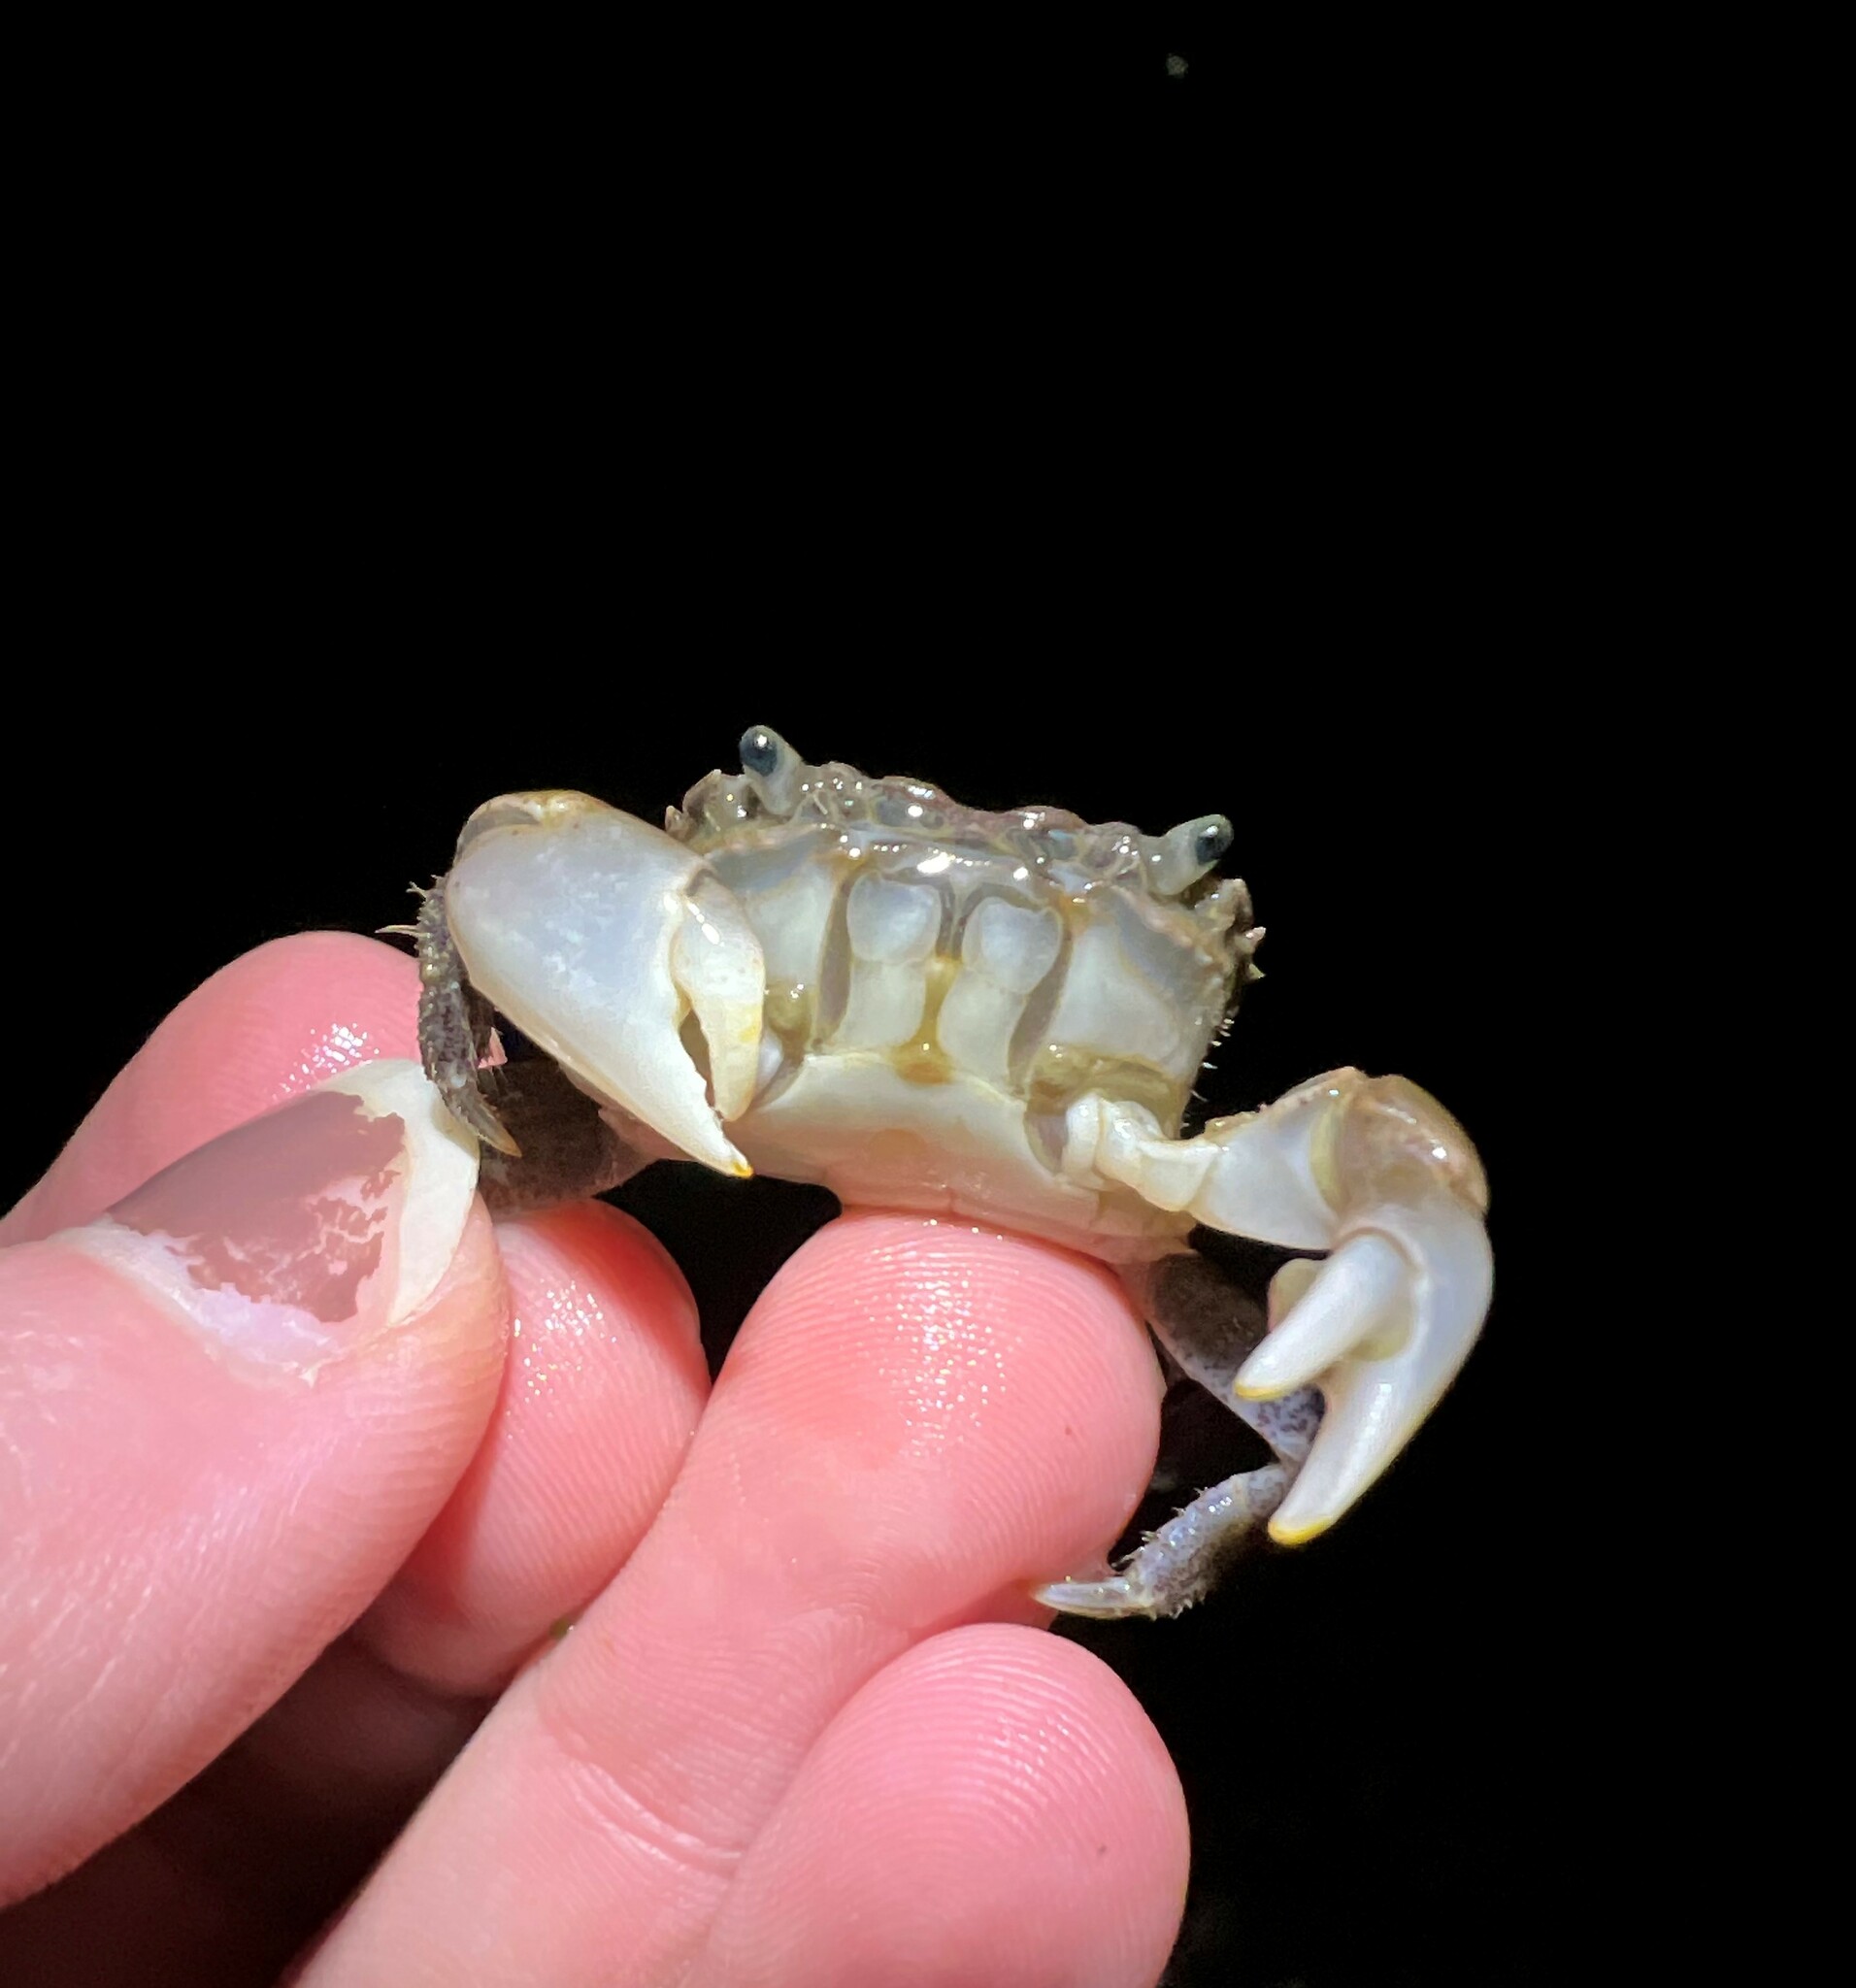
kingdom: Animalia
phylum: Arthropoda
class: Malacostraca
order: Decapoda
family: Varunidae
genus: Hemigrapsus
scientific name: Hemigrapsus oregonensis
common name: Yellow shore crab
